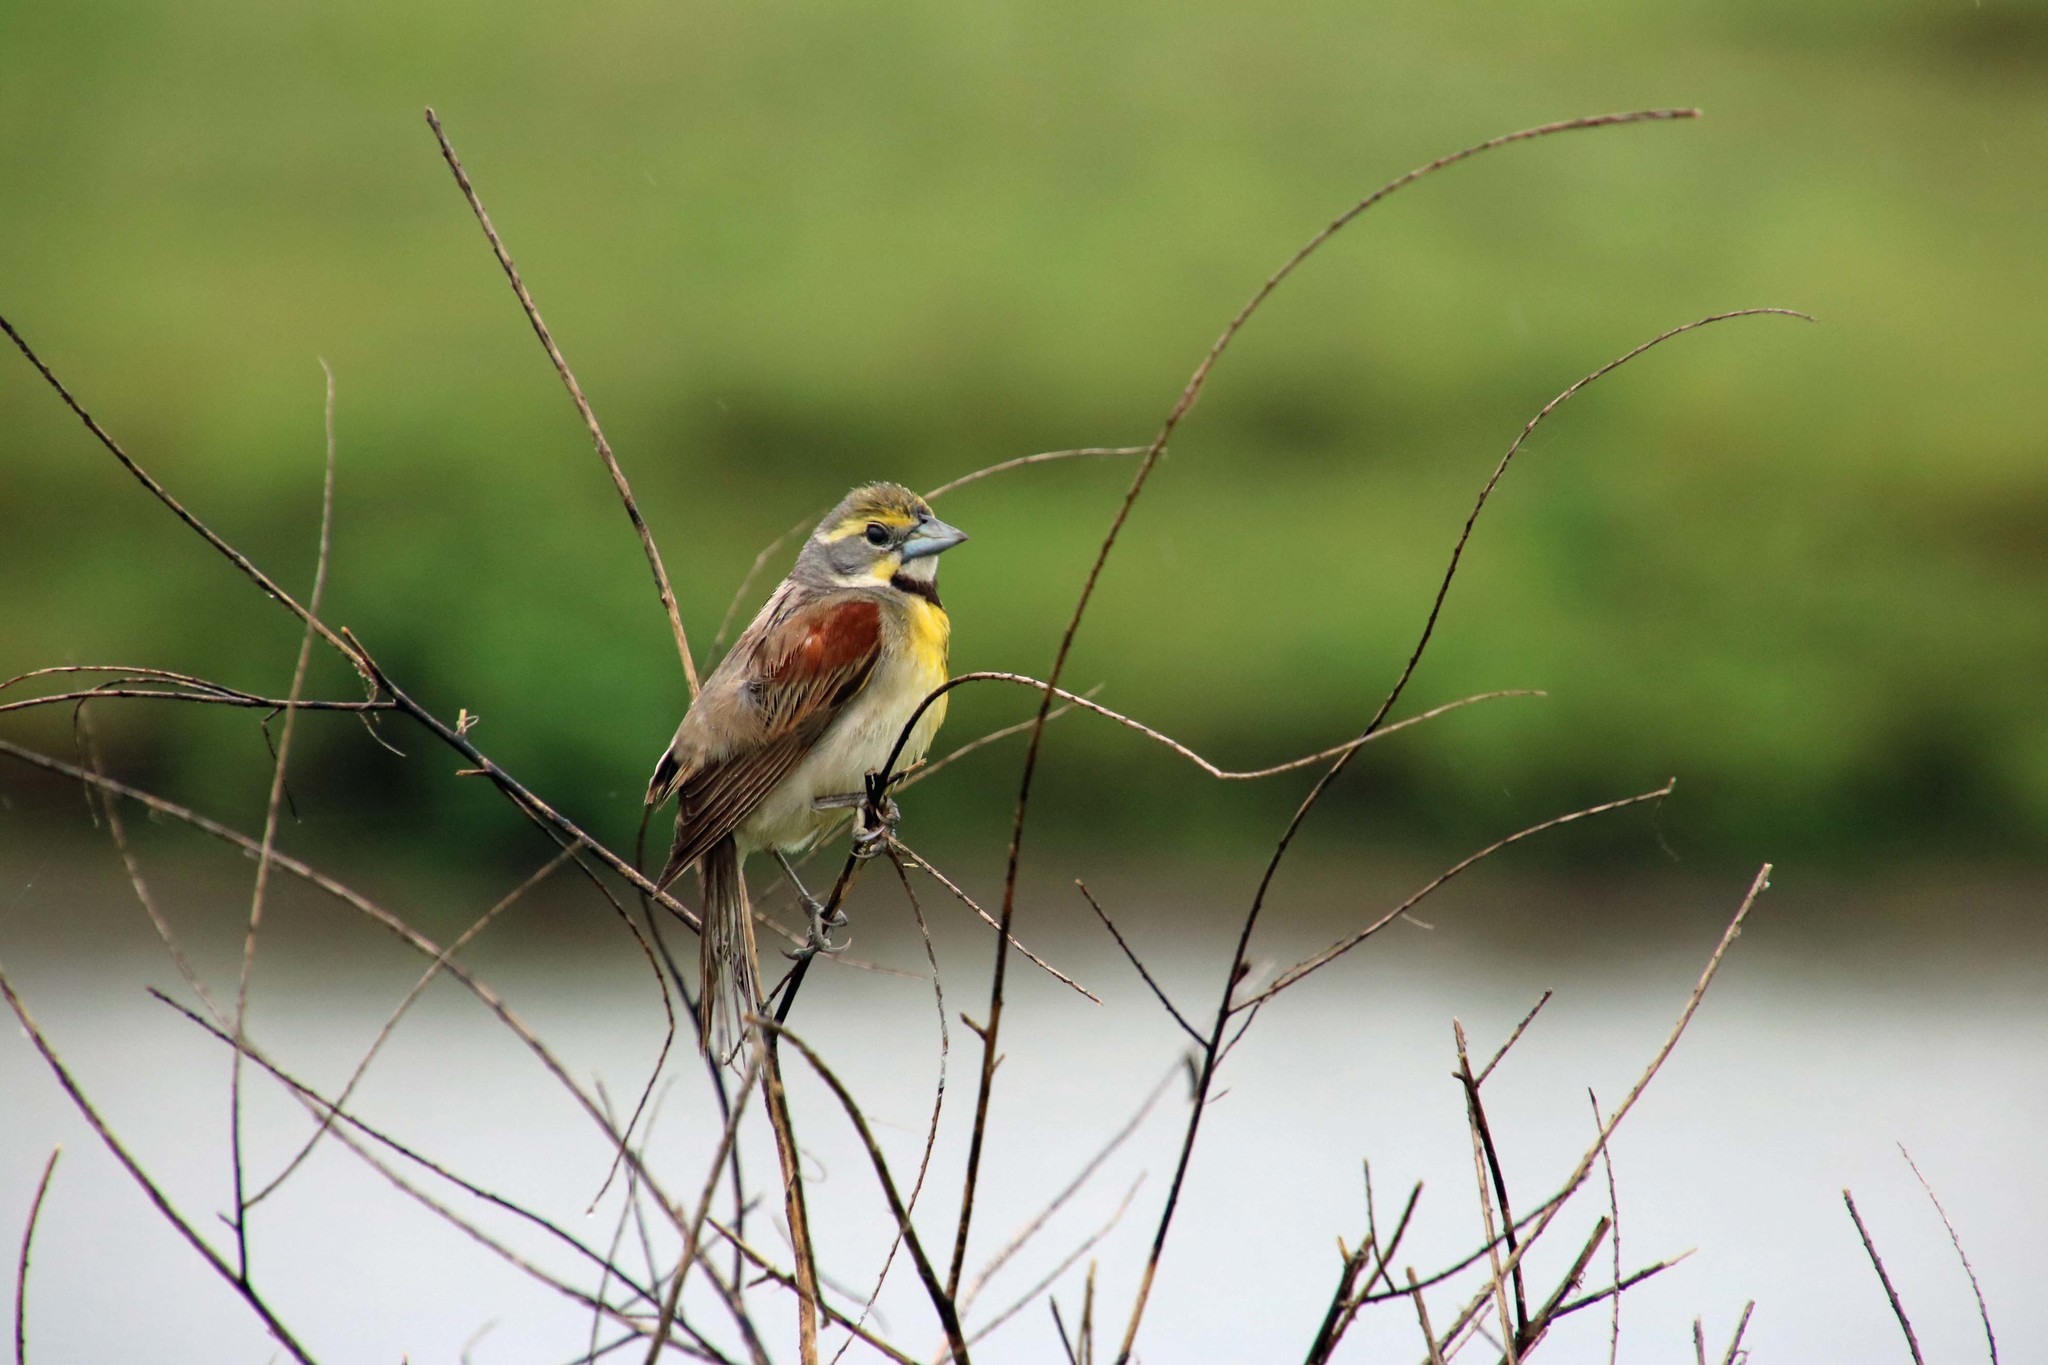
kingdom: Animalia
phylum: Chordata
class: Aves
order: Passeriformes
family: Cardinalidae
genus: Spiza
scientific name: Spiza americana
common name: Dickcissel
